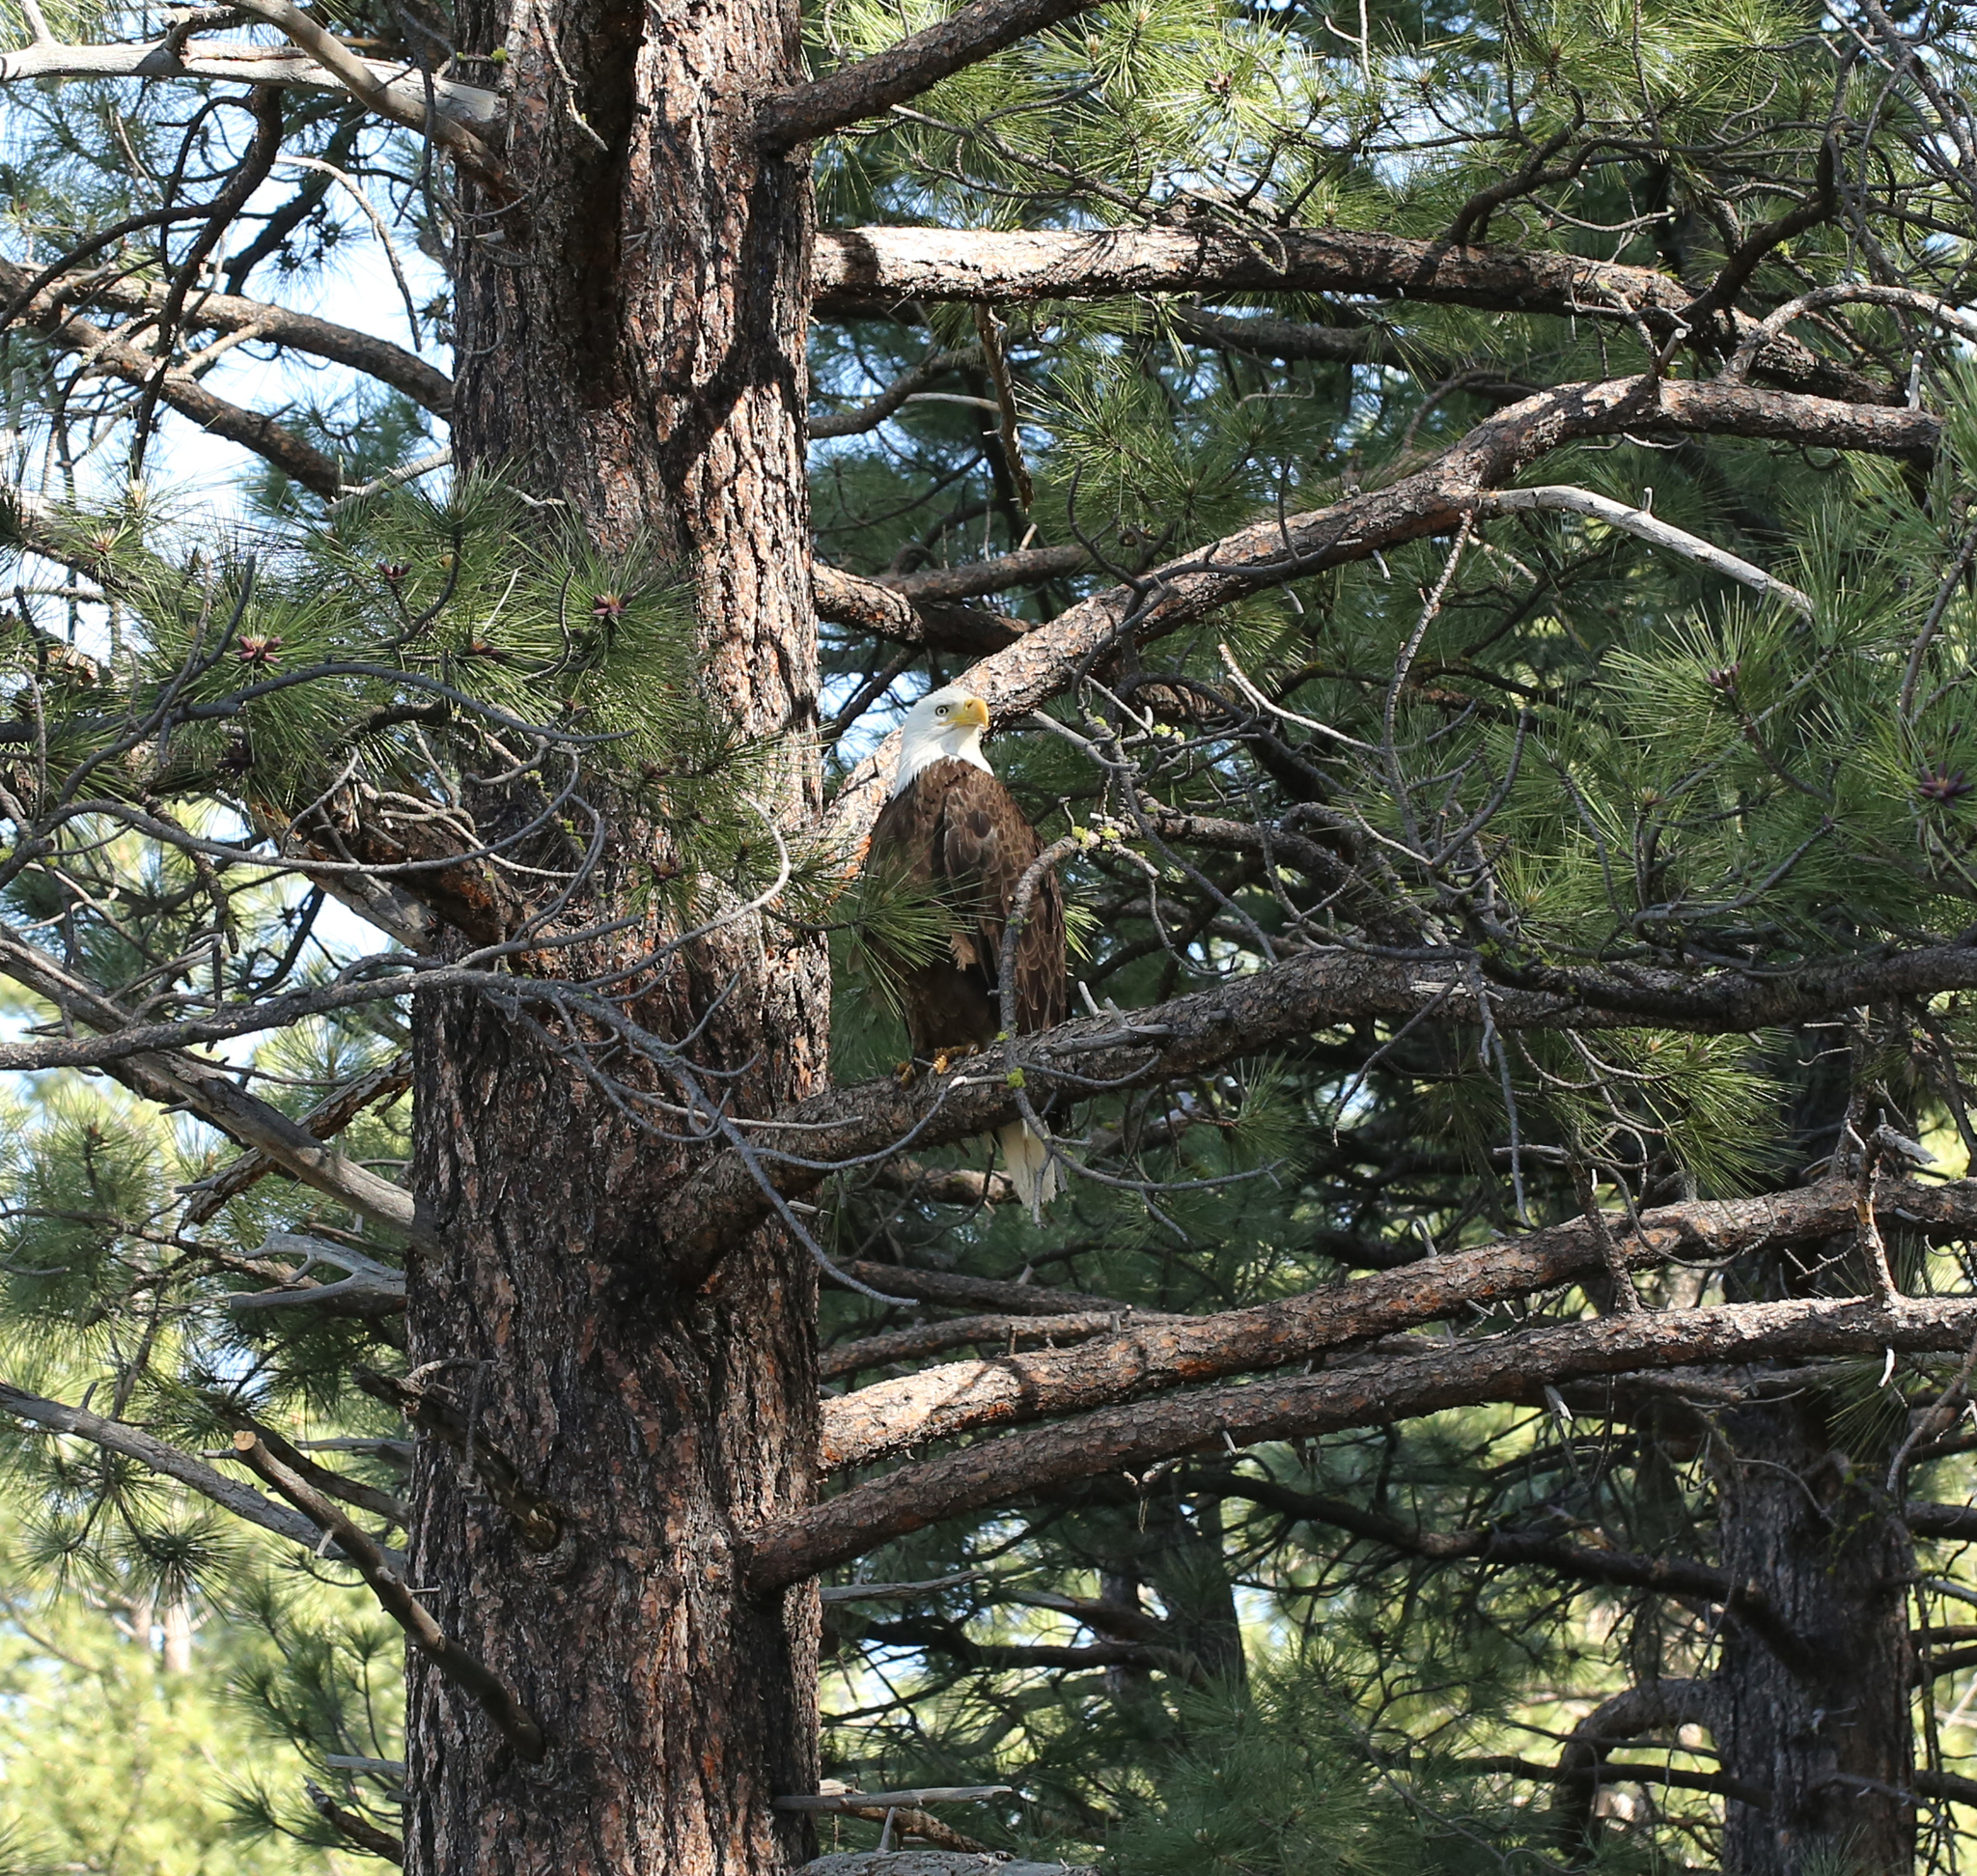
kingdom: Animalia
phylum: Chordata
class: Aves
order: Accipitriformes
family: Accipitridae
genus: Haliaeetus
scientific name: Haliaeetus leucocephalus
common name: Bald eagle
